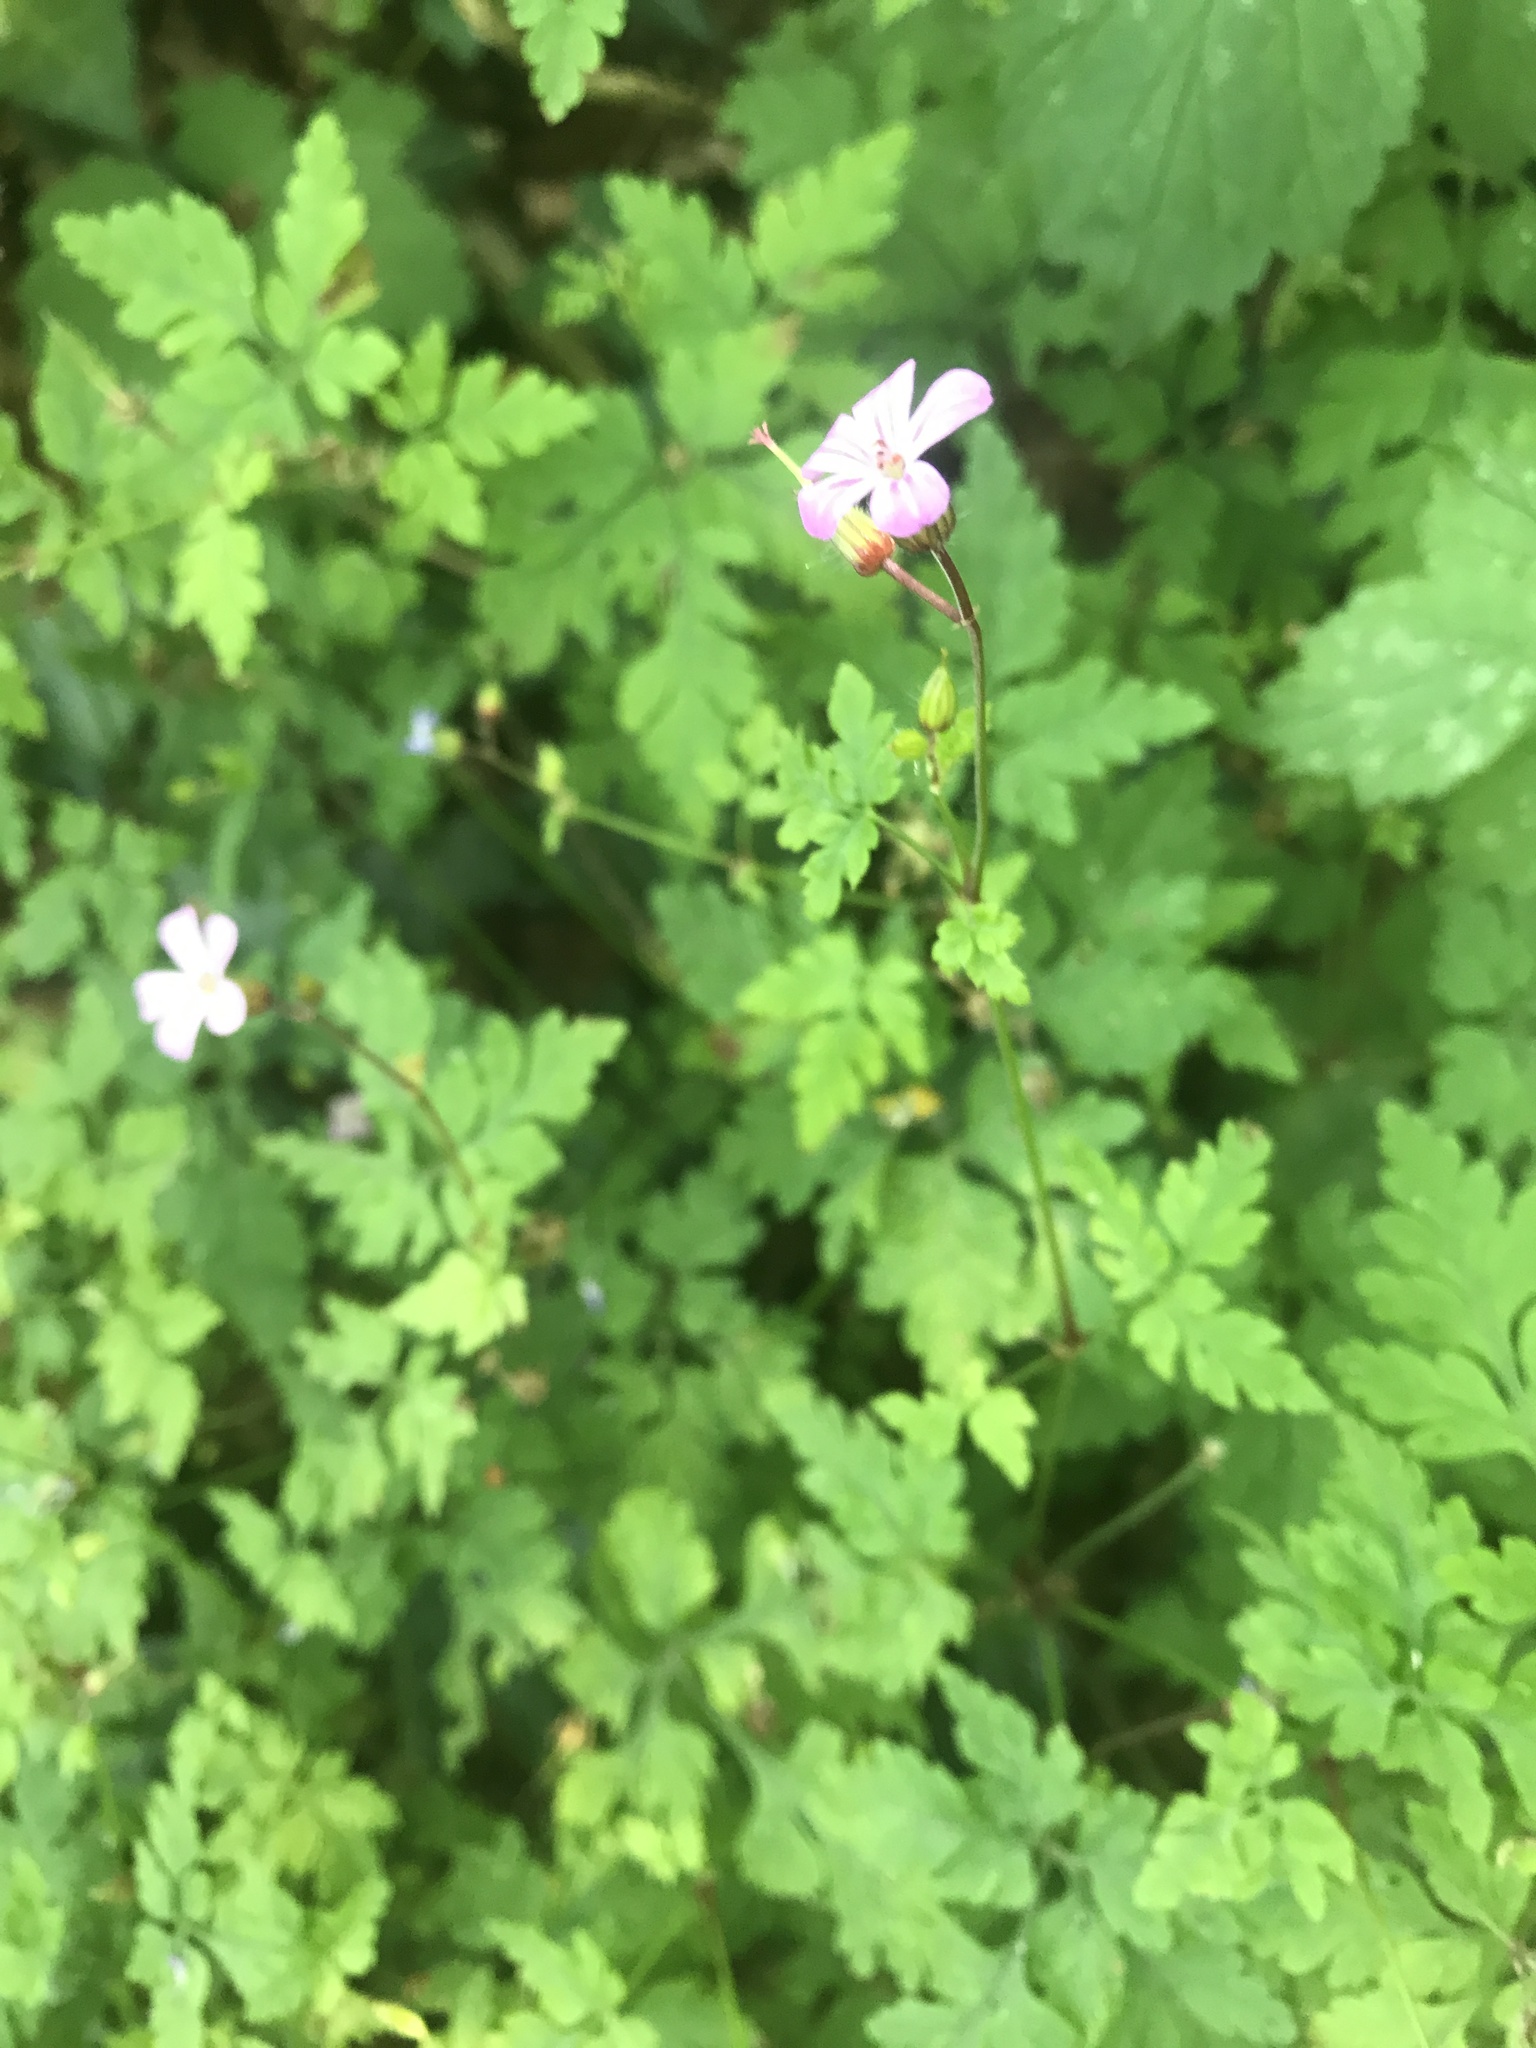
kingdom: Plantae
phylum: Tracheophyta
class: Magnoliopsida
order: Geraniales
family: Geraniaceae
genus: Geranium
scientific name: Geranium robertianum
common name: Herb-robert
